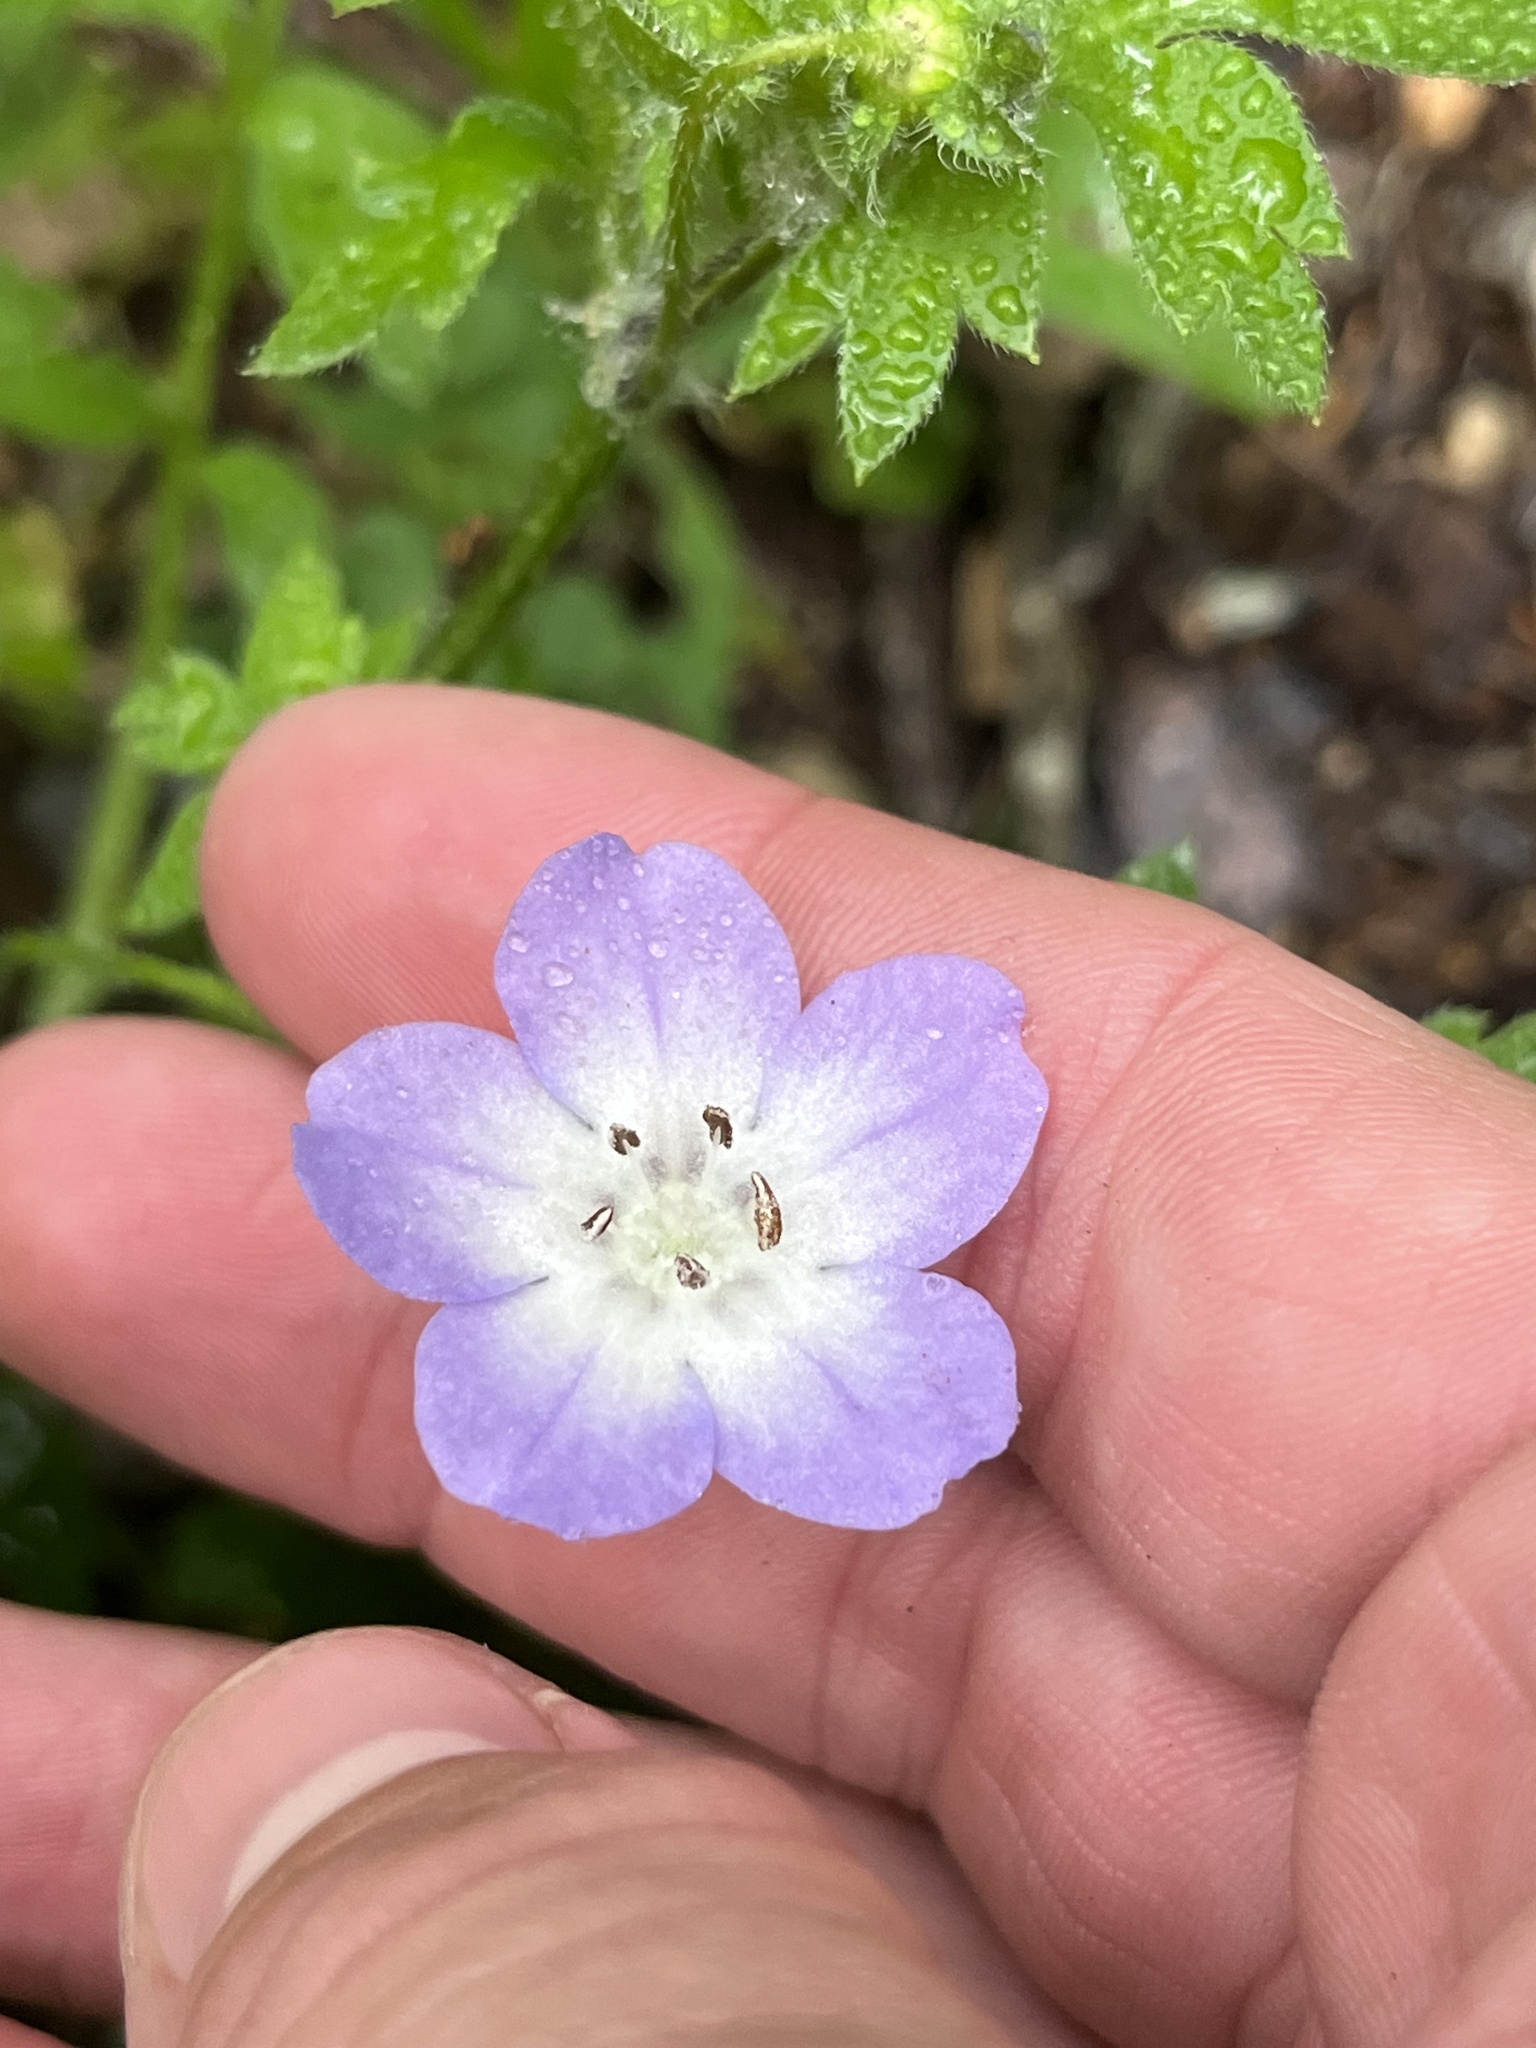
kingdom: Plantae
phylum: Tracheophyta
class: Magnoliopsida
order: Boraginales
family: Hydrophyllaceae
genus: Nemophila
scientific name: Nemophila phacelioides
